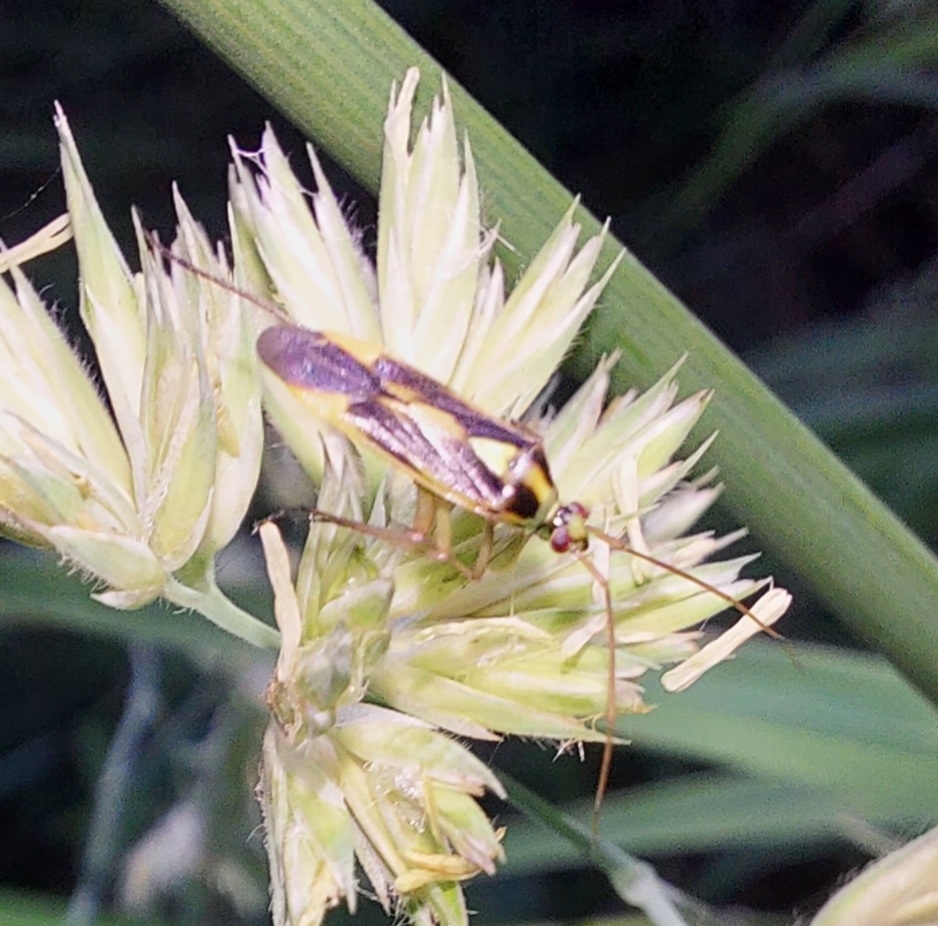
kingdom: Animalia
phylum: Arthropoda
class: Insecta
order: Hemiptera
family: Miridae
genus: Stenotus
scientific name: Stenotus binotatus
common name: Plant bug
